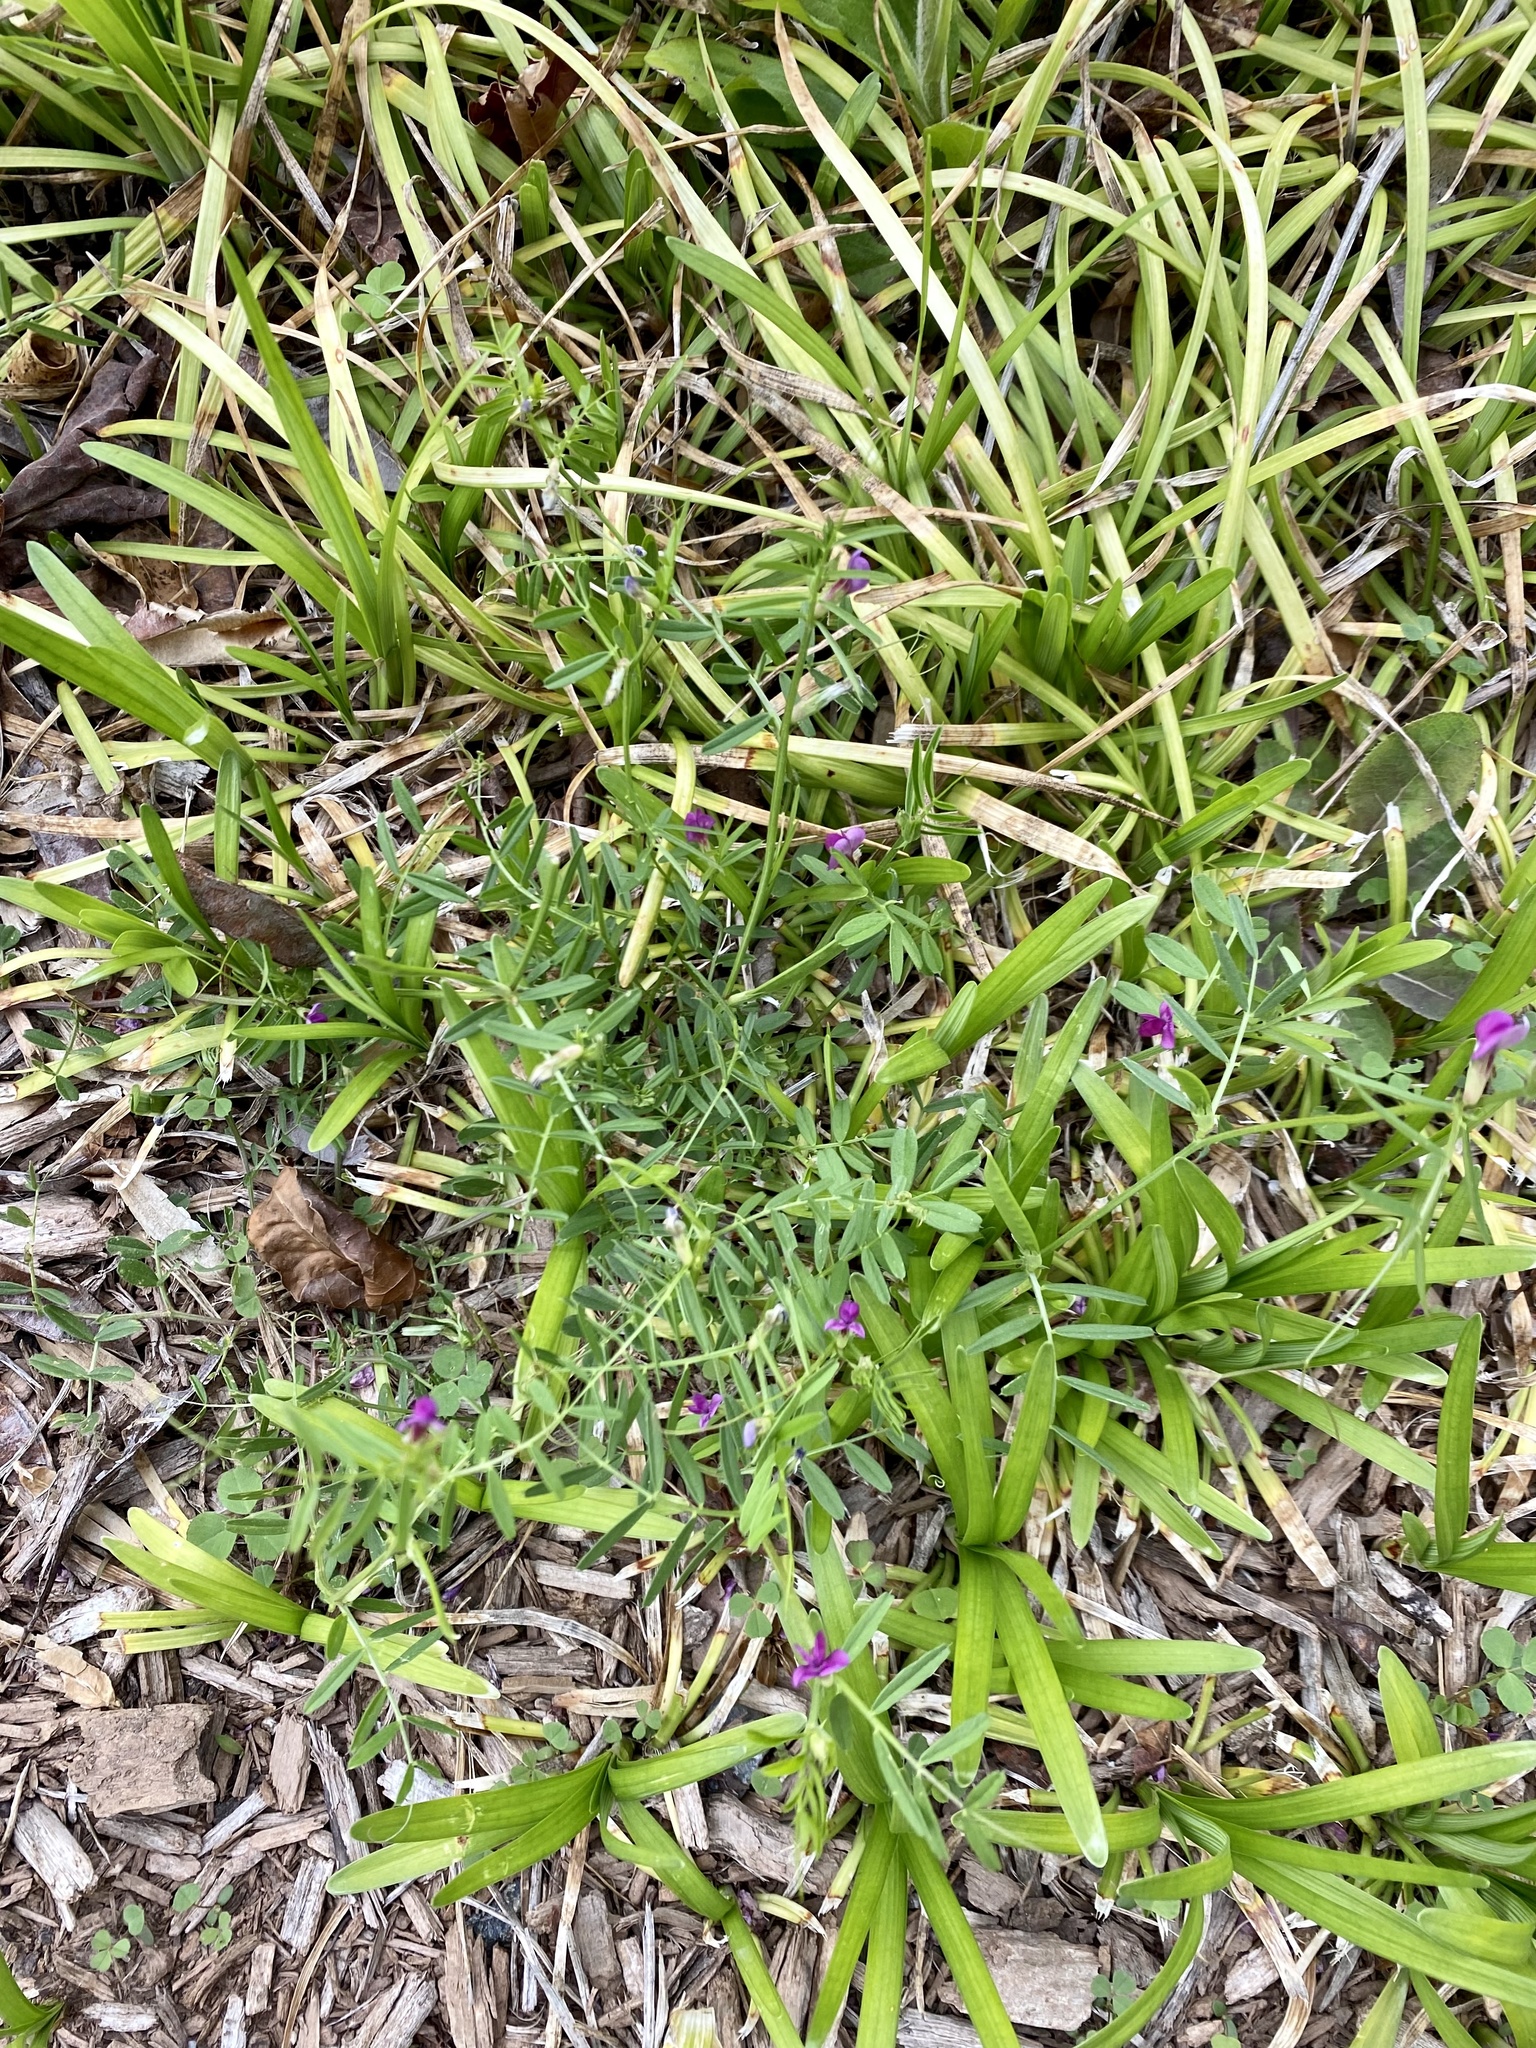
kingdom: Plantae
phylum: Tracheophyta
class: Magnoliopsida
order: Fabales
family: Fabaceae
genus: Vicia
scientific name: Vicia sativa
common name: Garden vetch
